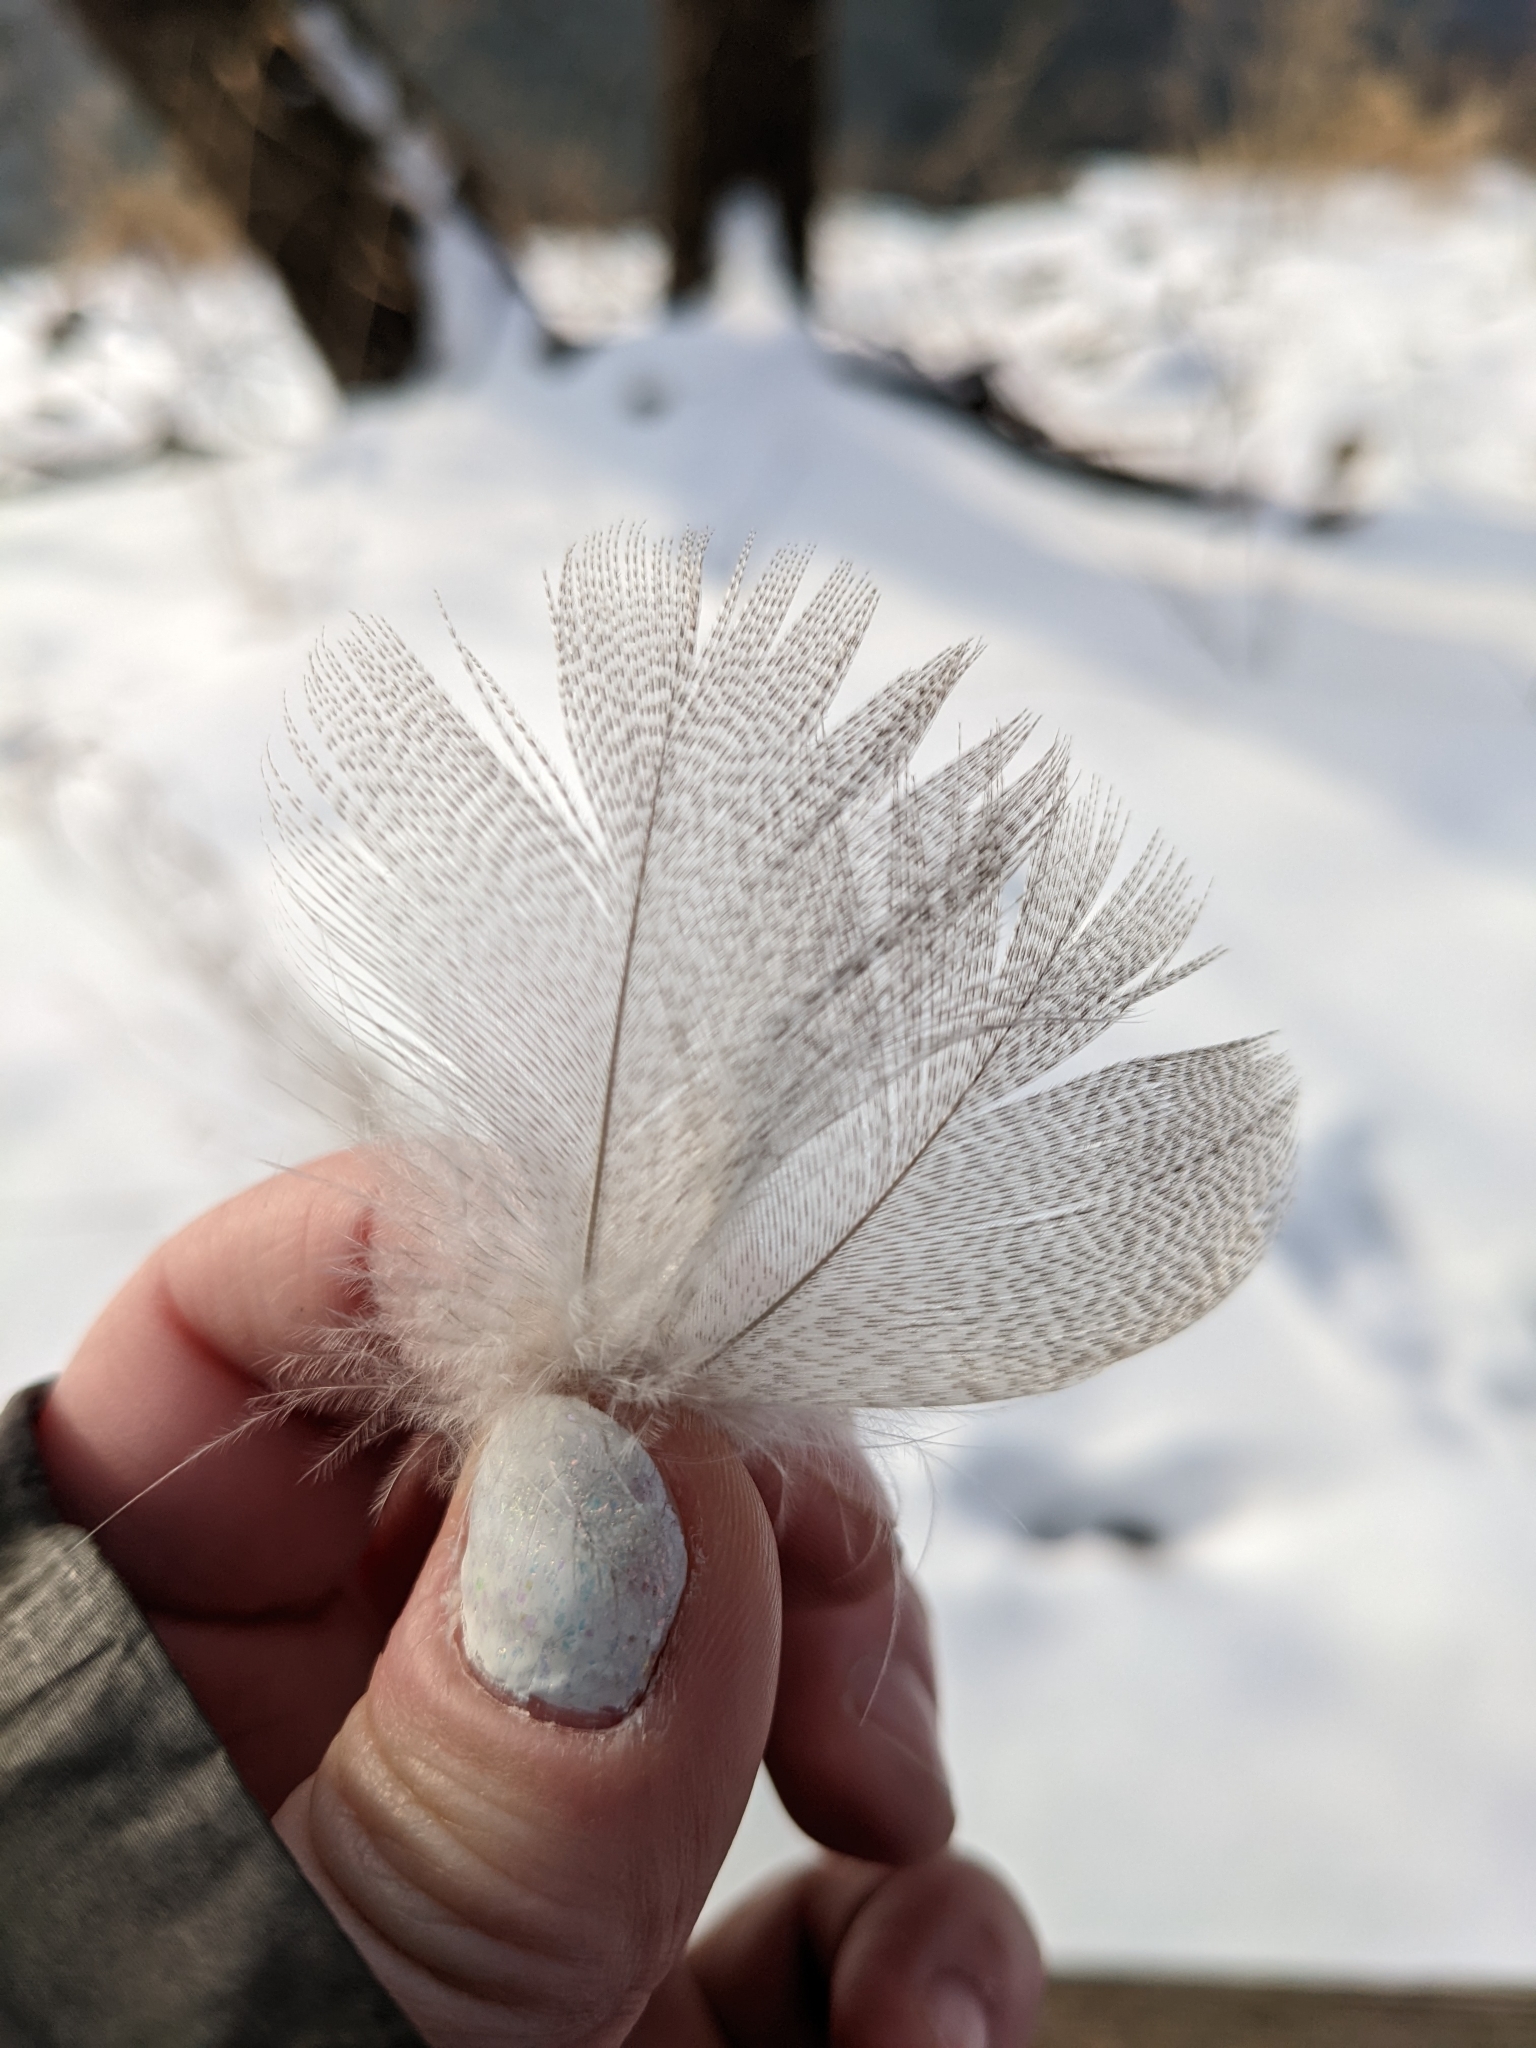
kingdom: Animalia
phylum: Chordata
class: Aves
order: Anseriformes
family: Anatidae
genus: Anas
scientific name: Anas platyrhynchos
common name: Mallard
